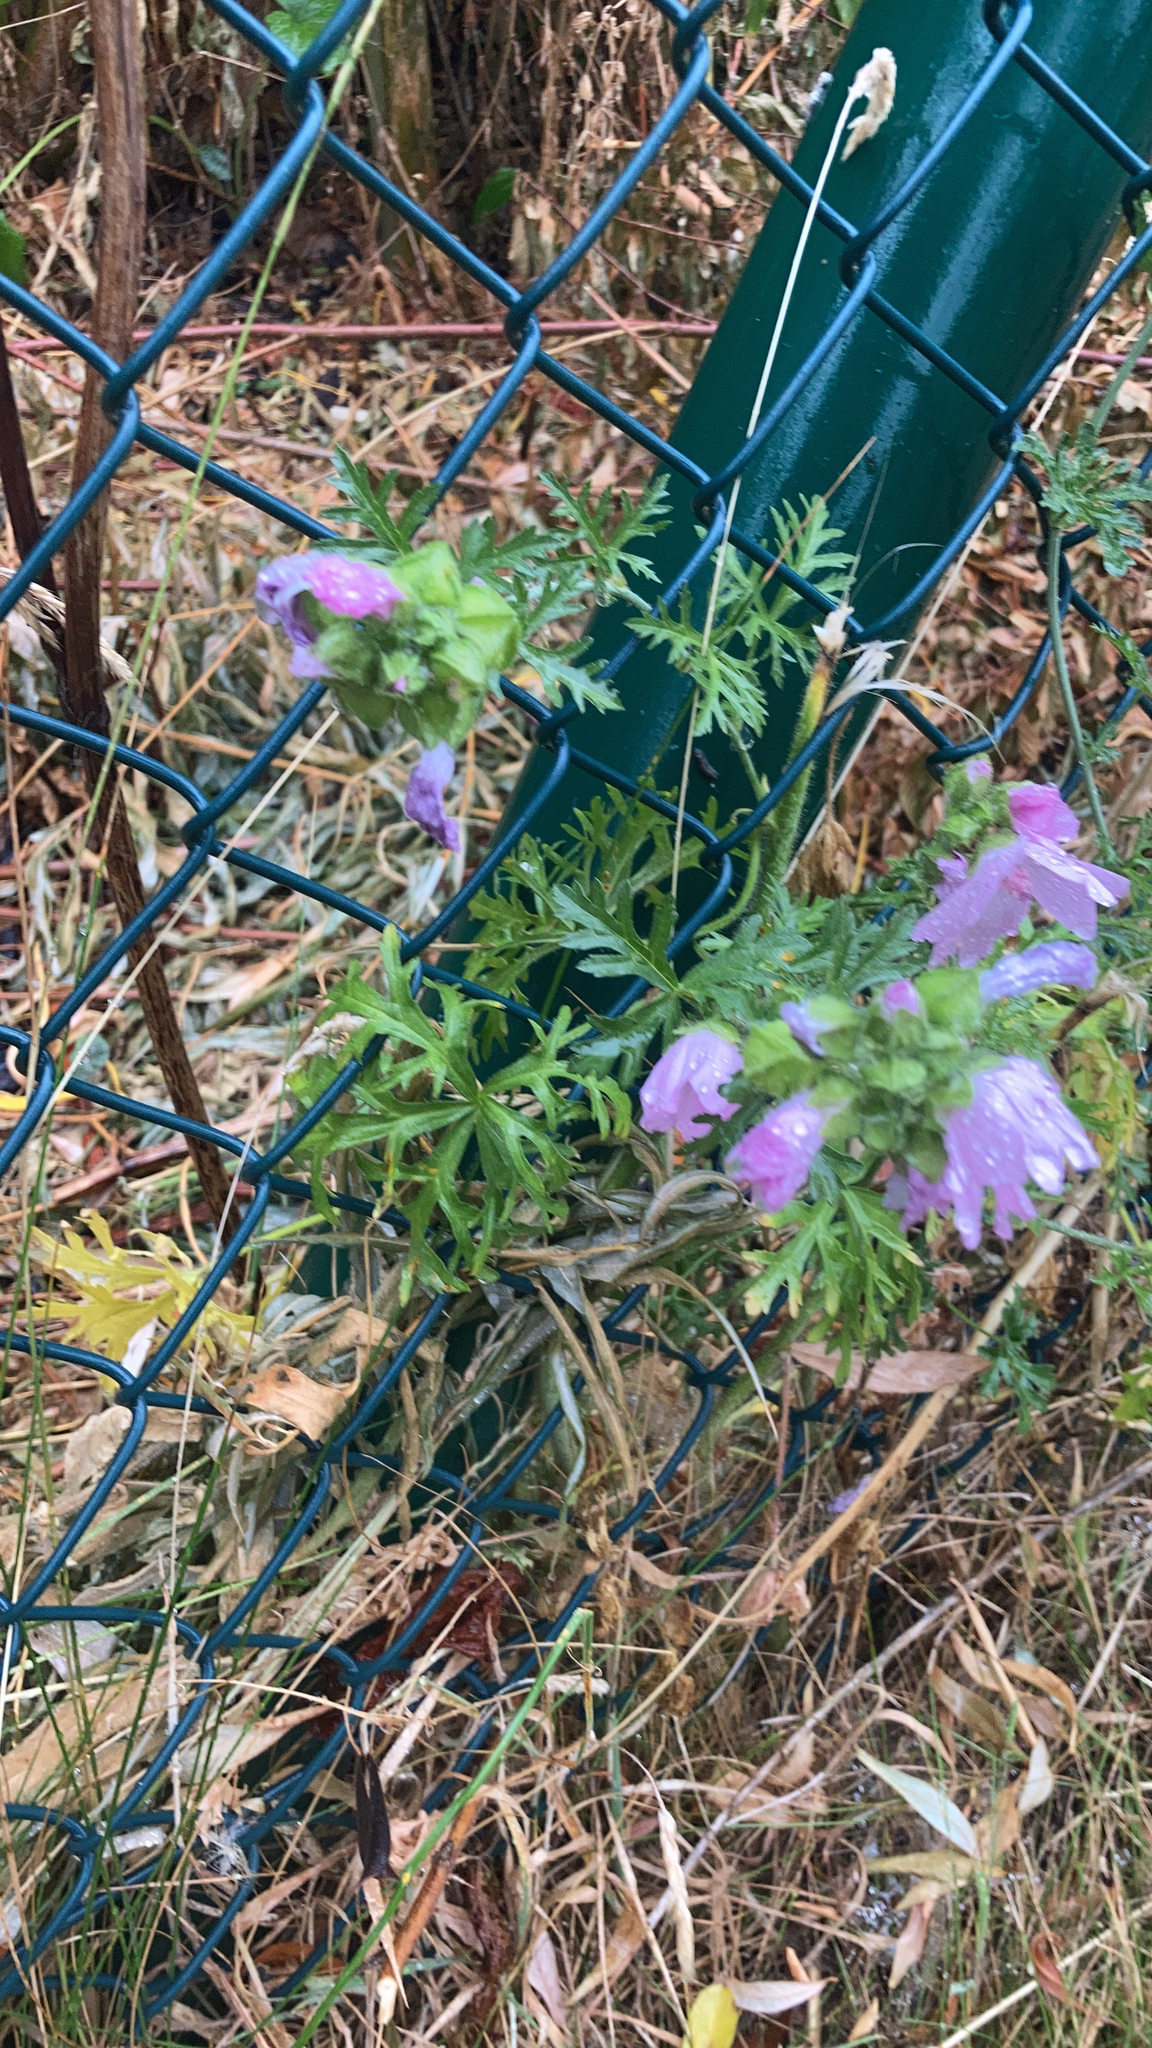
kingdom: Plantae
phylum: Tracheophyta
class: Magnoliopsida
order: Malvales
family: Malvaceae
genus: Malva
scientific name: Malva moschata
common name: Musk mallow
